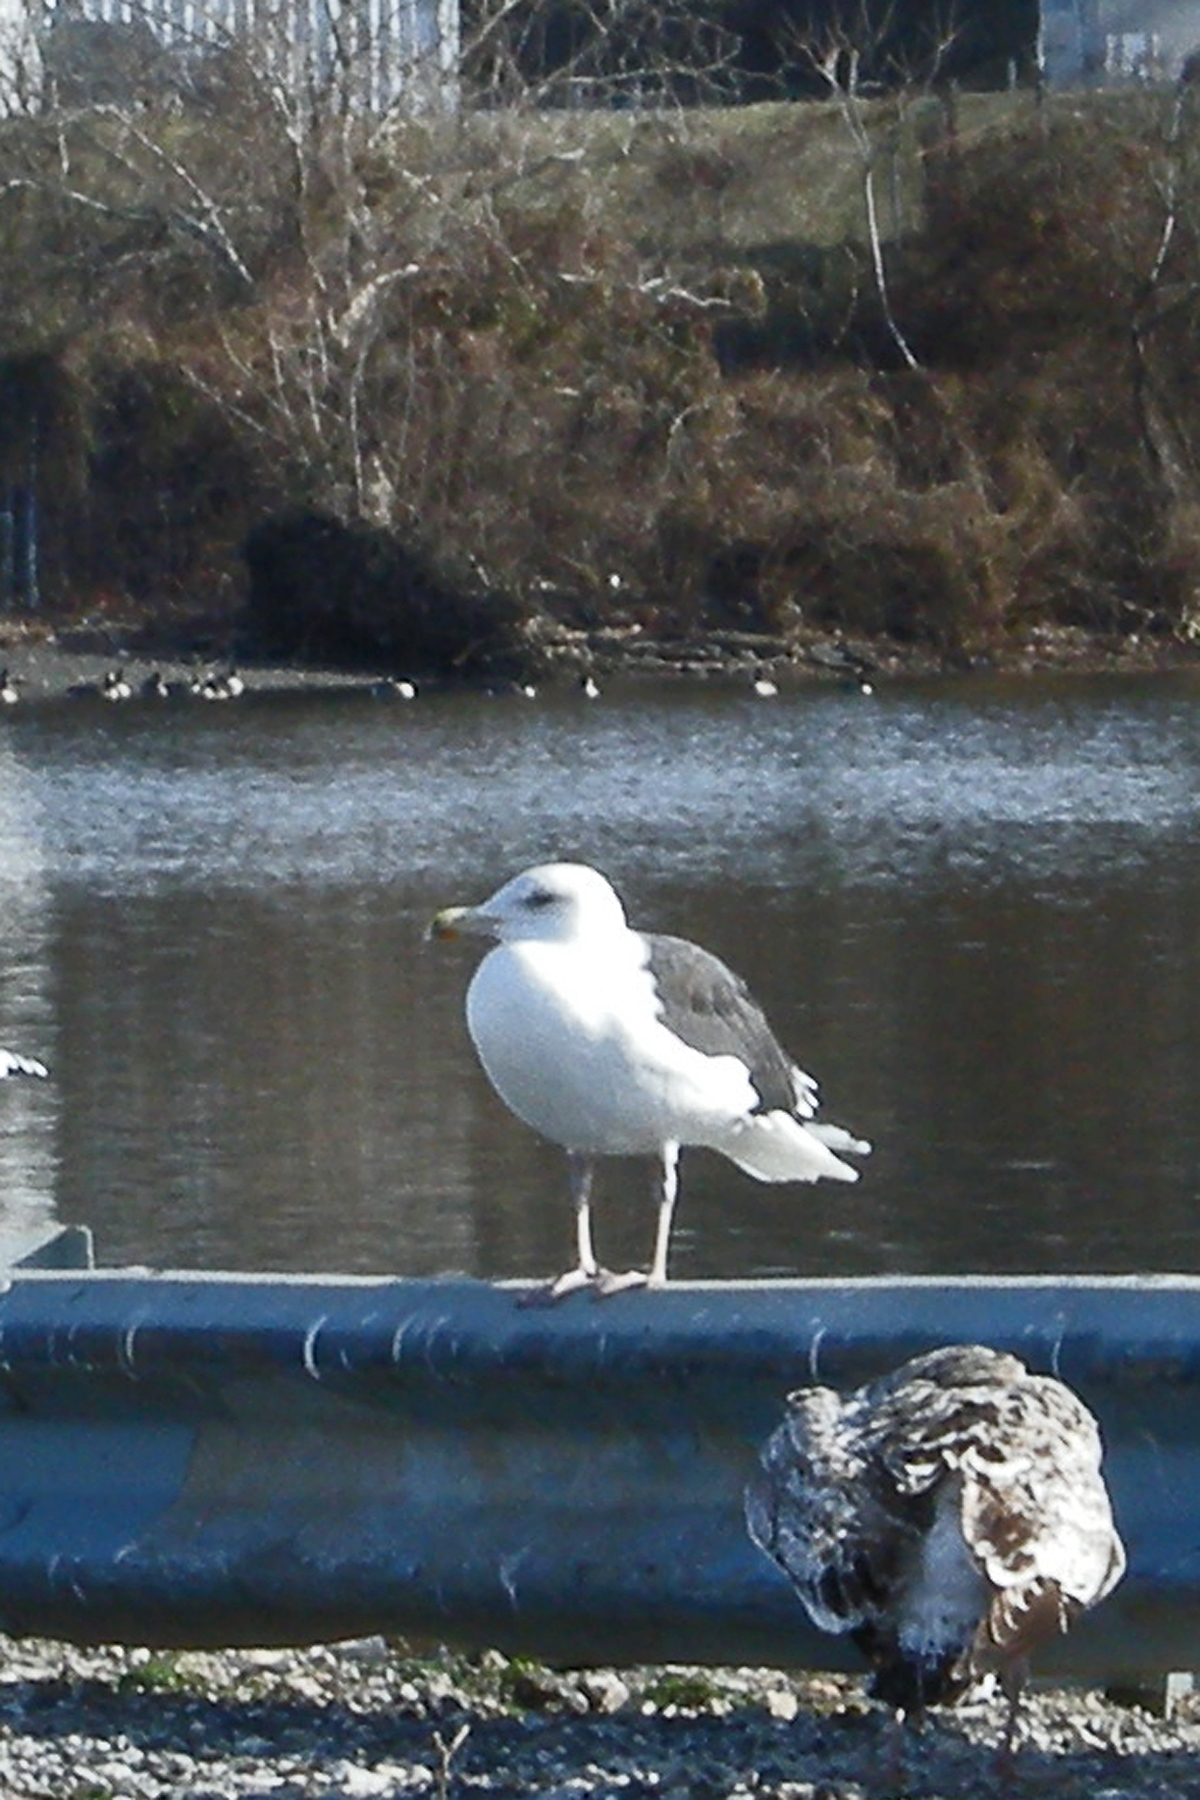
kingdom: Animalia
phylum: Chordata
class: Aves
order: Charadriiformes
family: Laridae
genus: Larus
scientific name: Larus marinus
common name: Great black-backed gull
